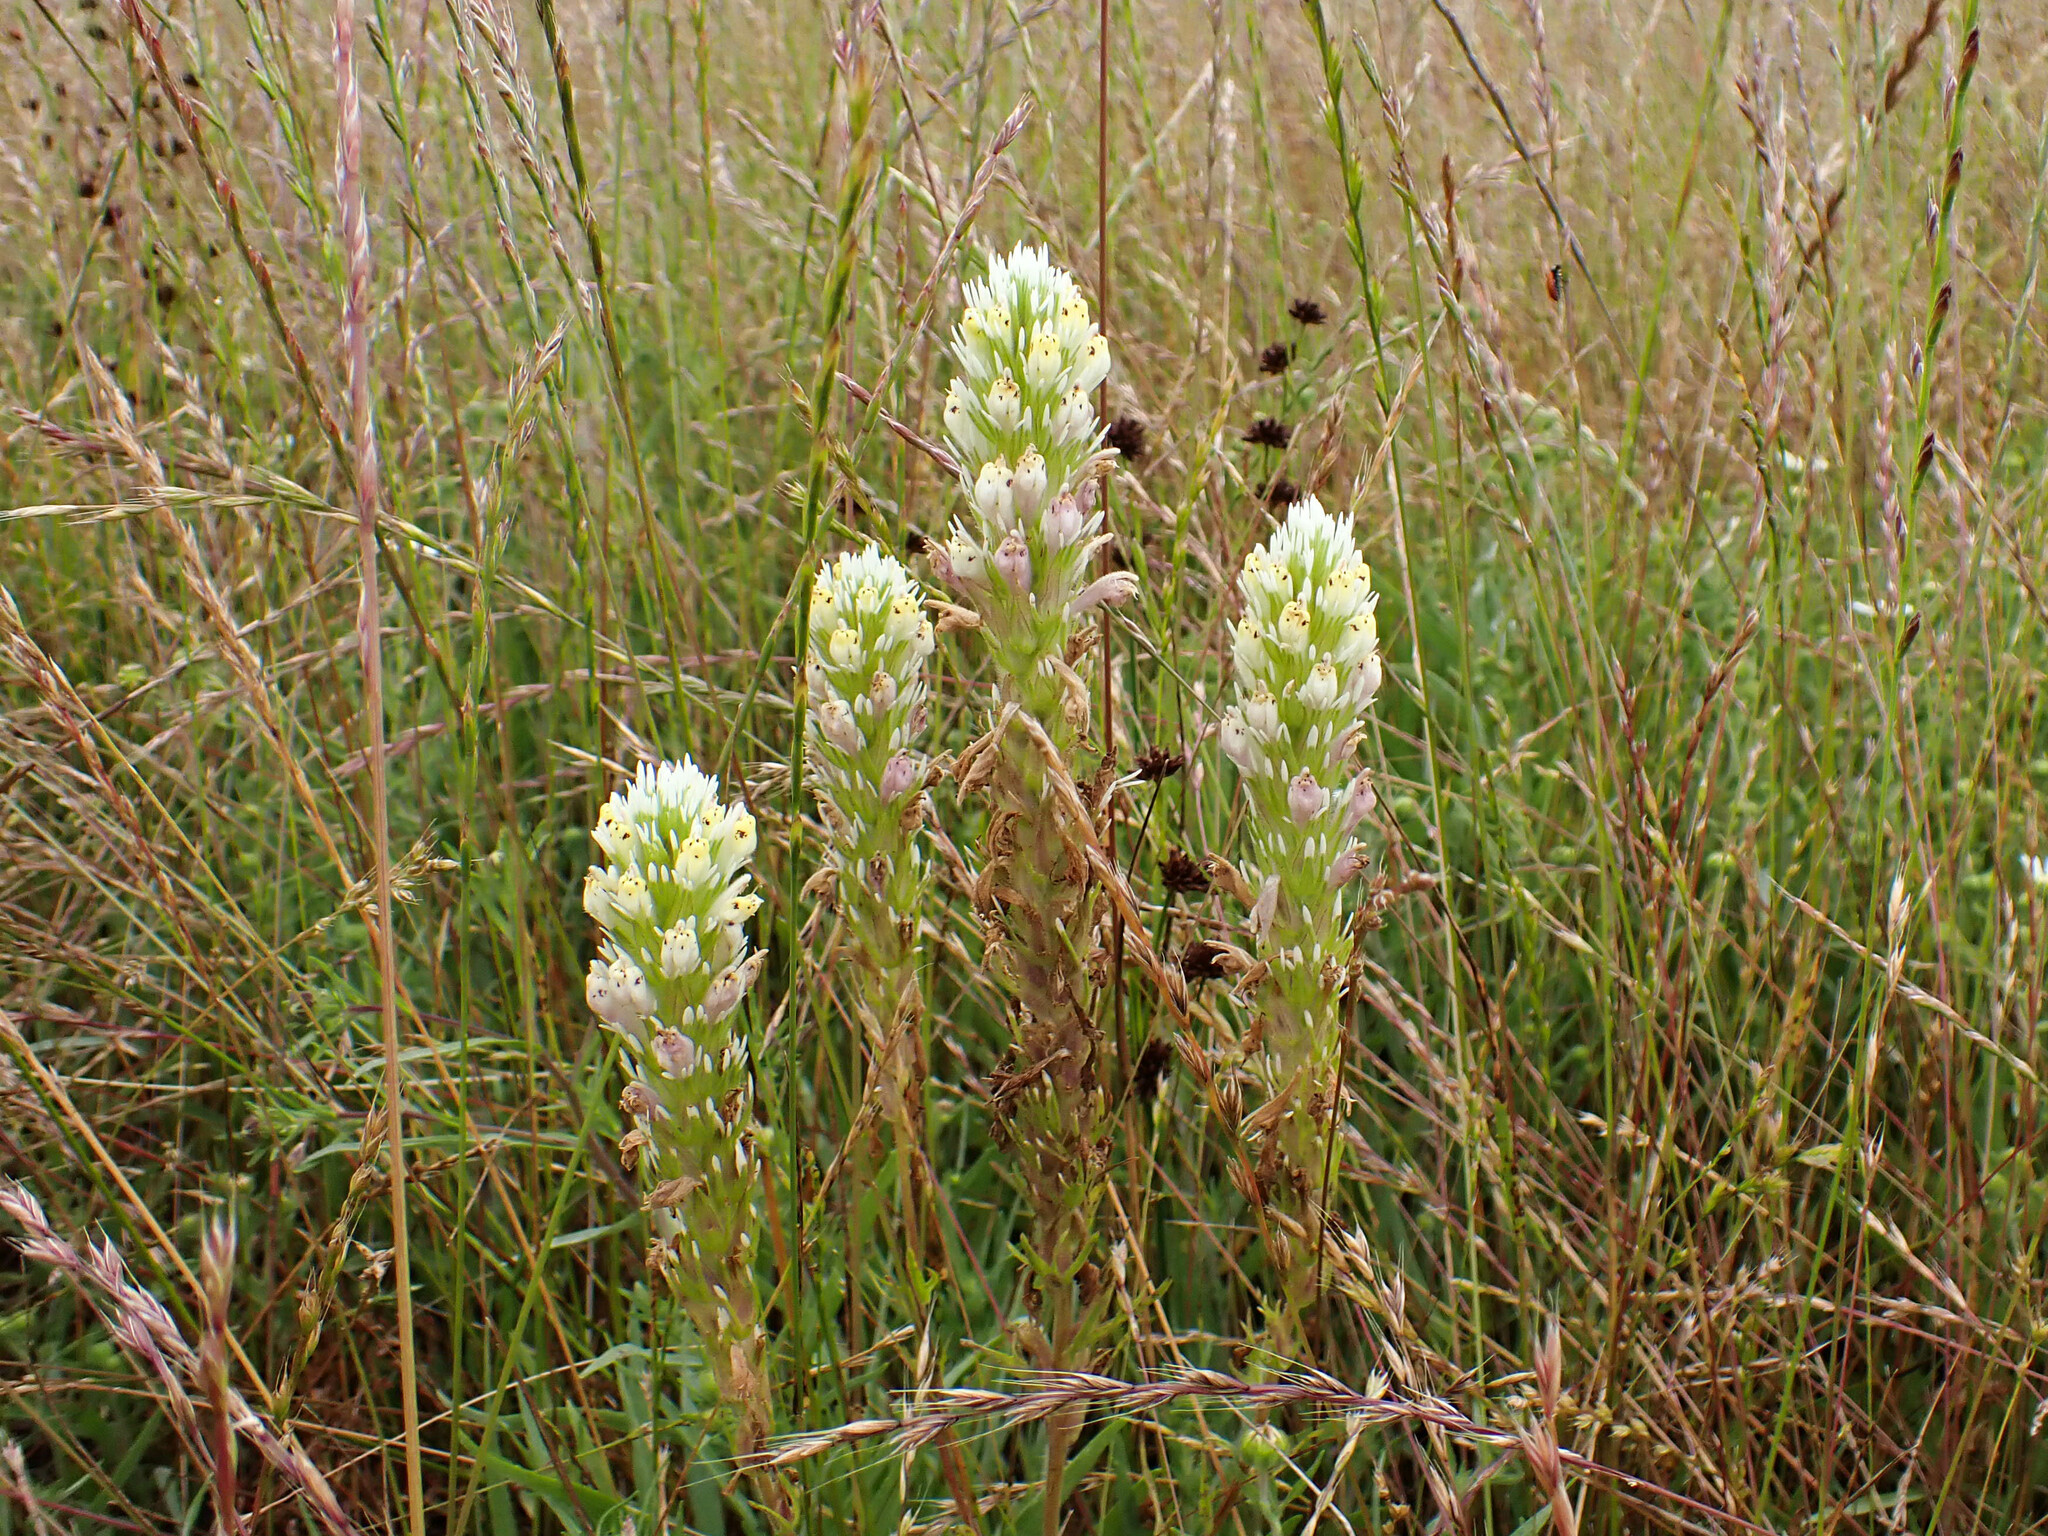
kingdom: Plantae
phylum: Tracheophyta
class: Magnoliopsida
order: Lamiales
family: Orobanchaceae
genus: Castilleja
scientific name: Castilleja densiflora
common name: Dense-flower indian paintbrush
